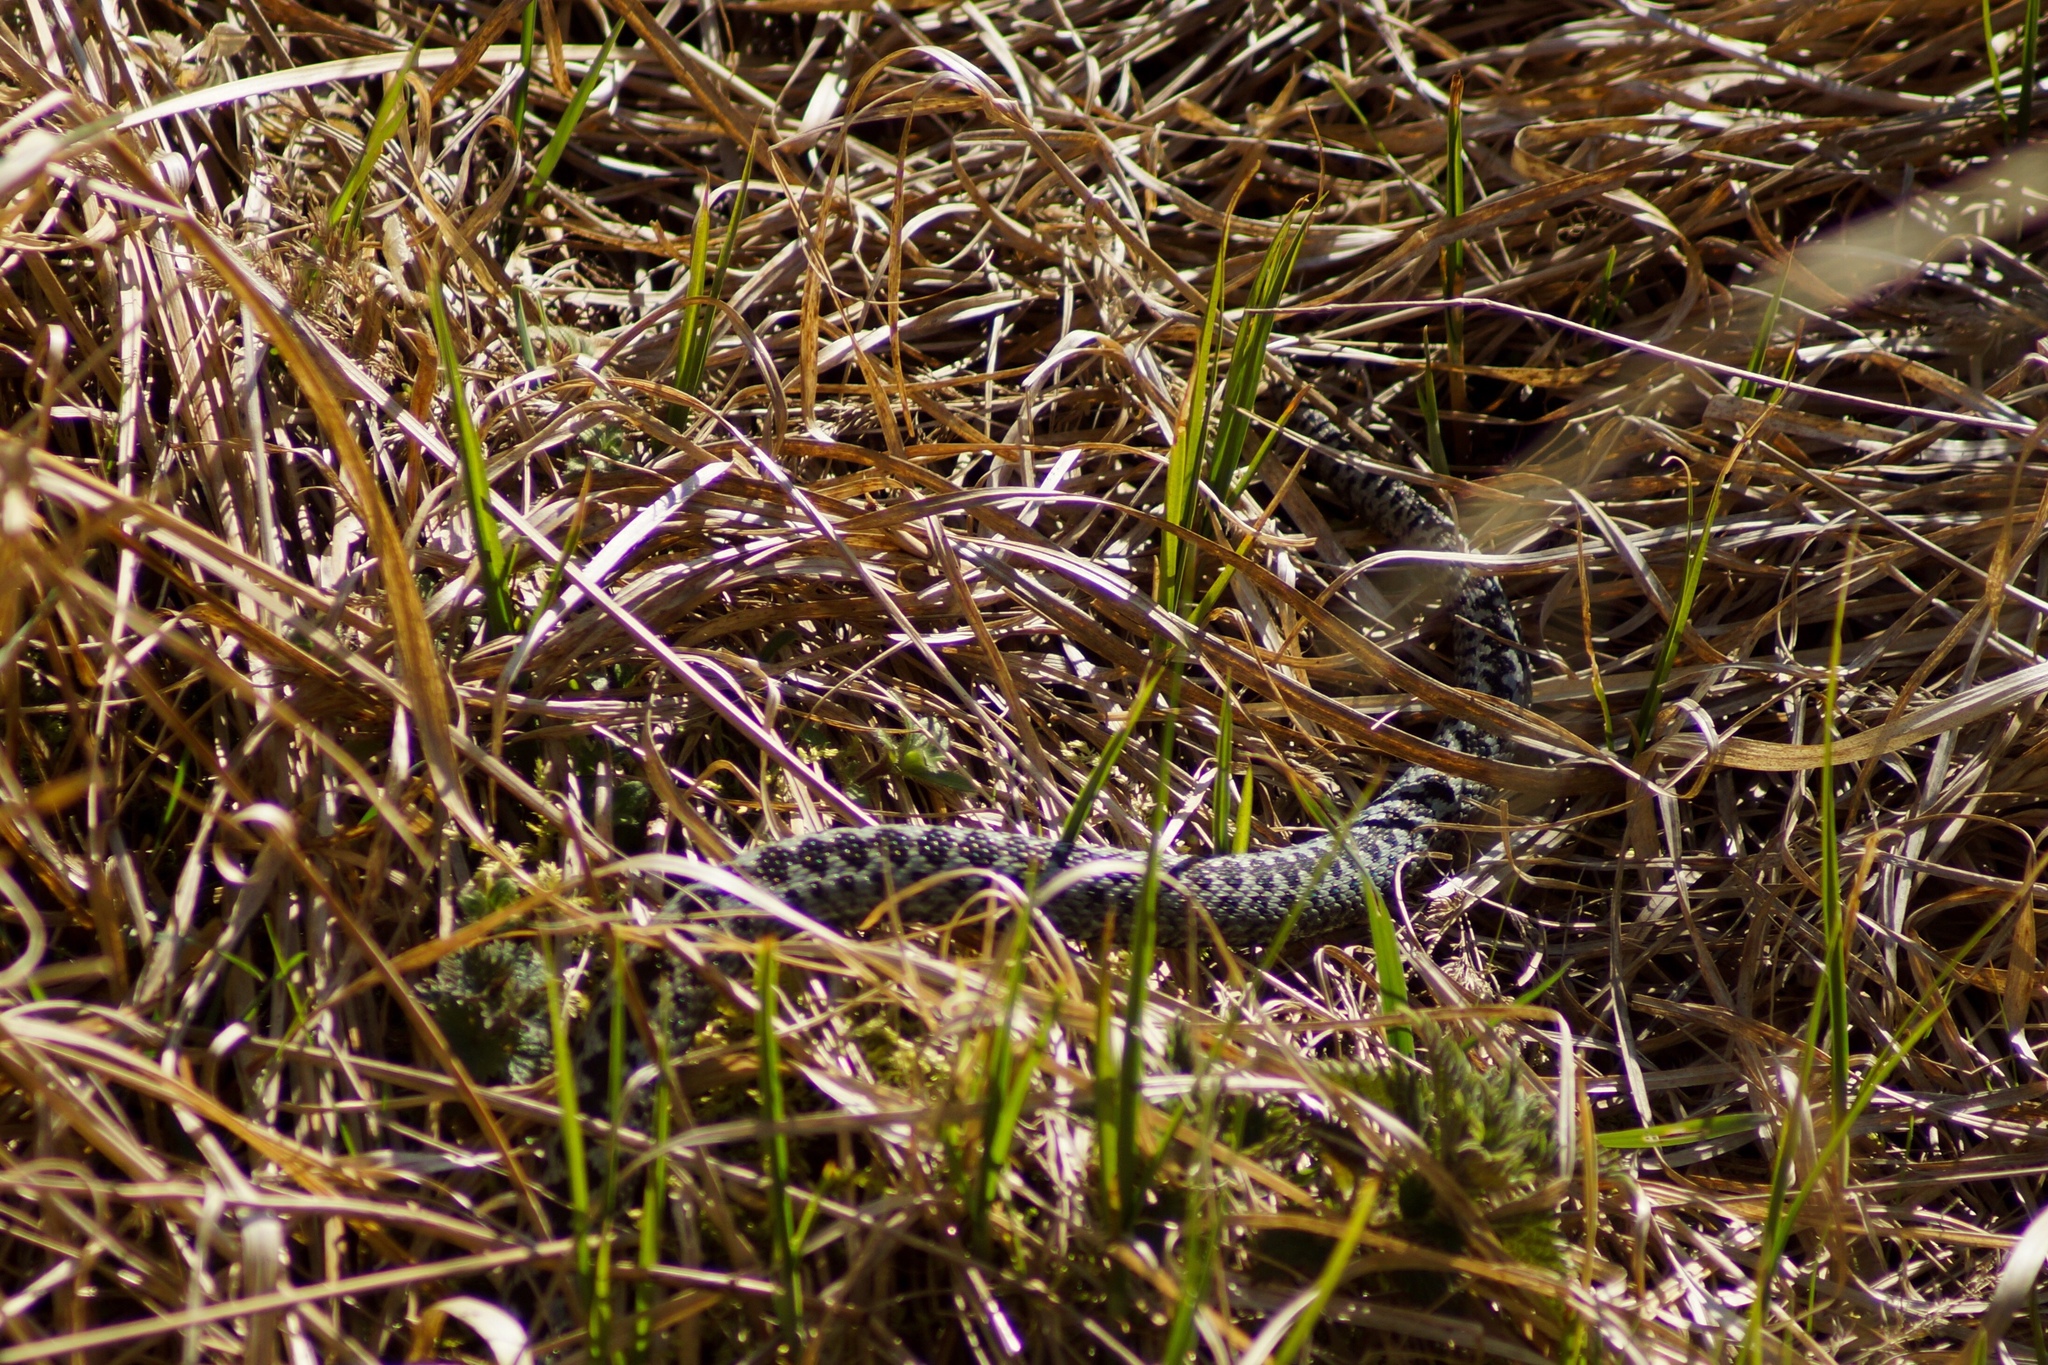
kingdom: Animalia
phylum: Chordata
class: Squamata
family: Viperidae
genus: Vipera
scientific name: Vipera berus
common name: Adder
